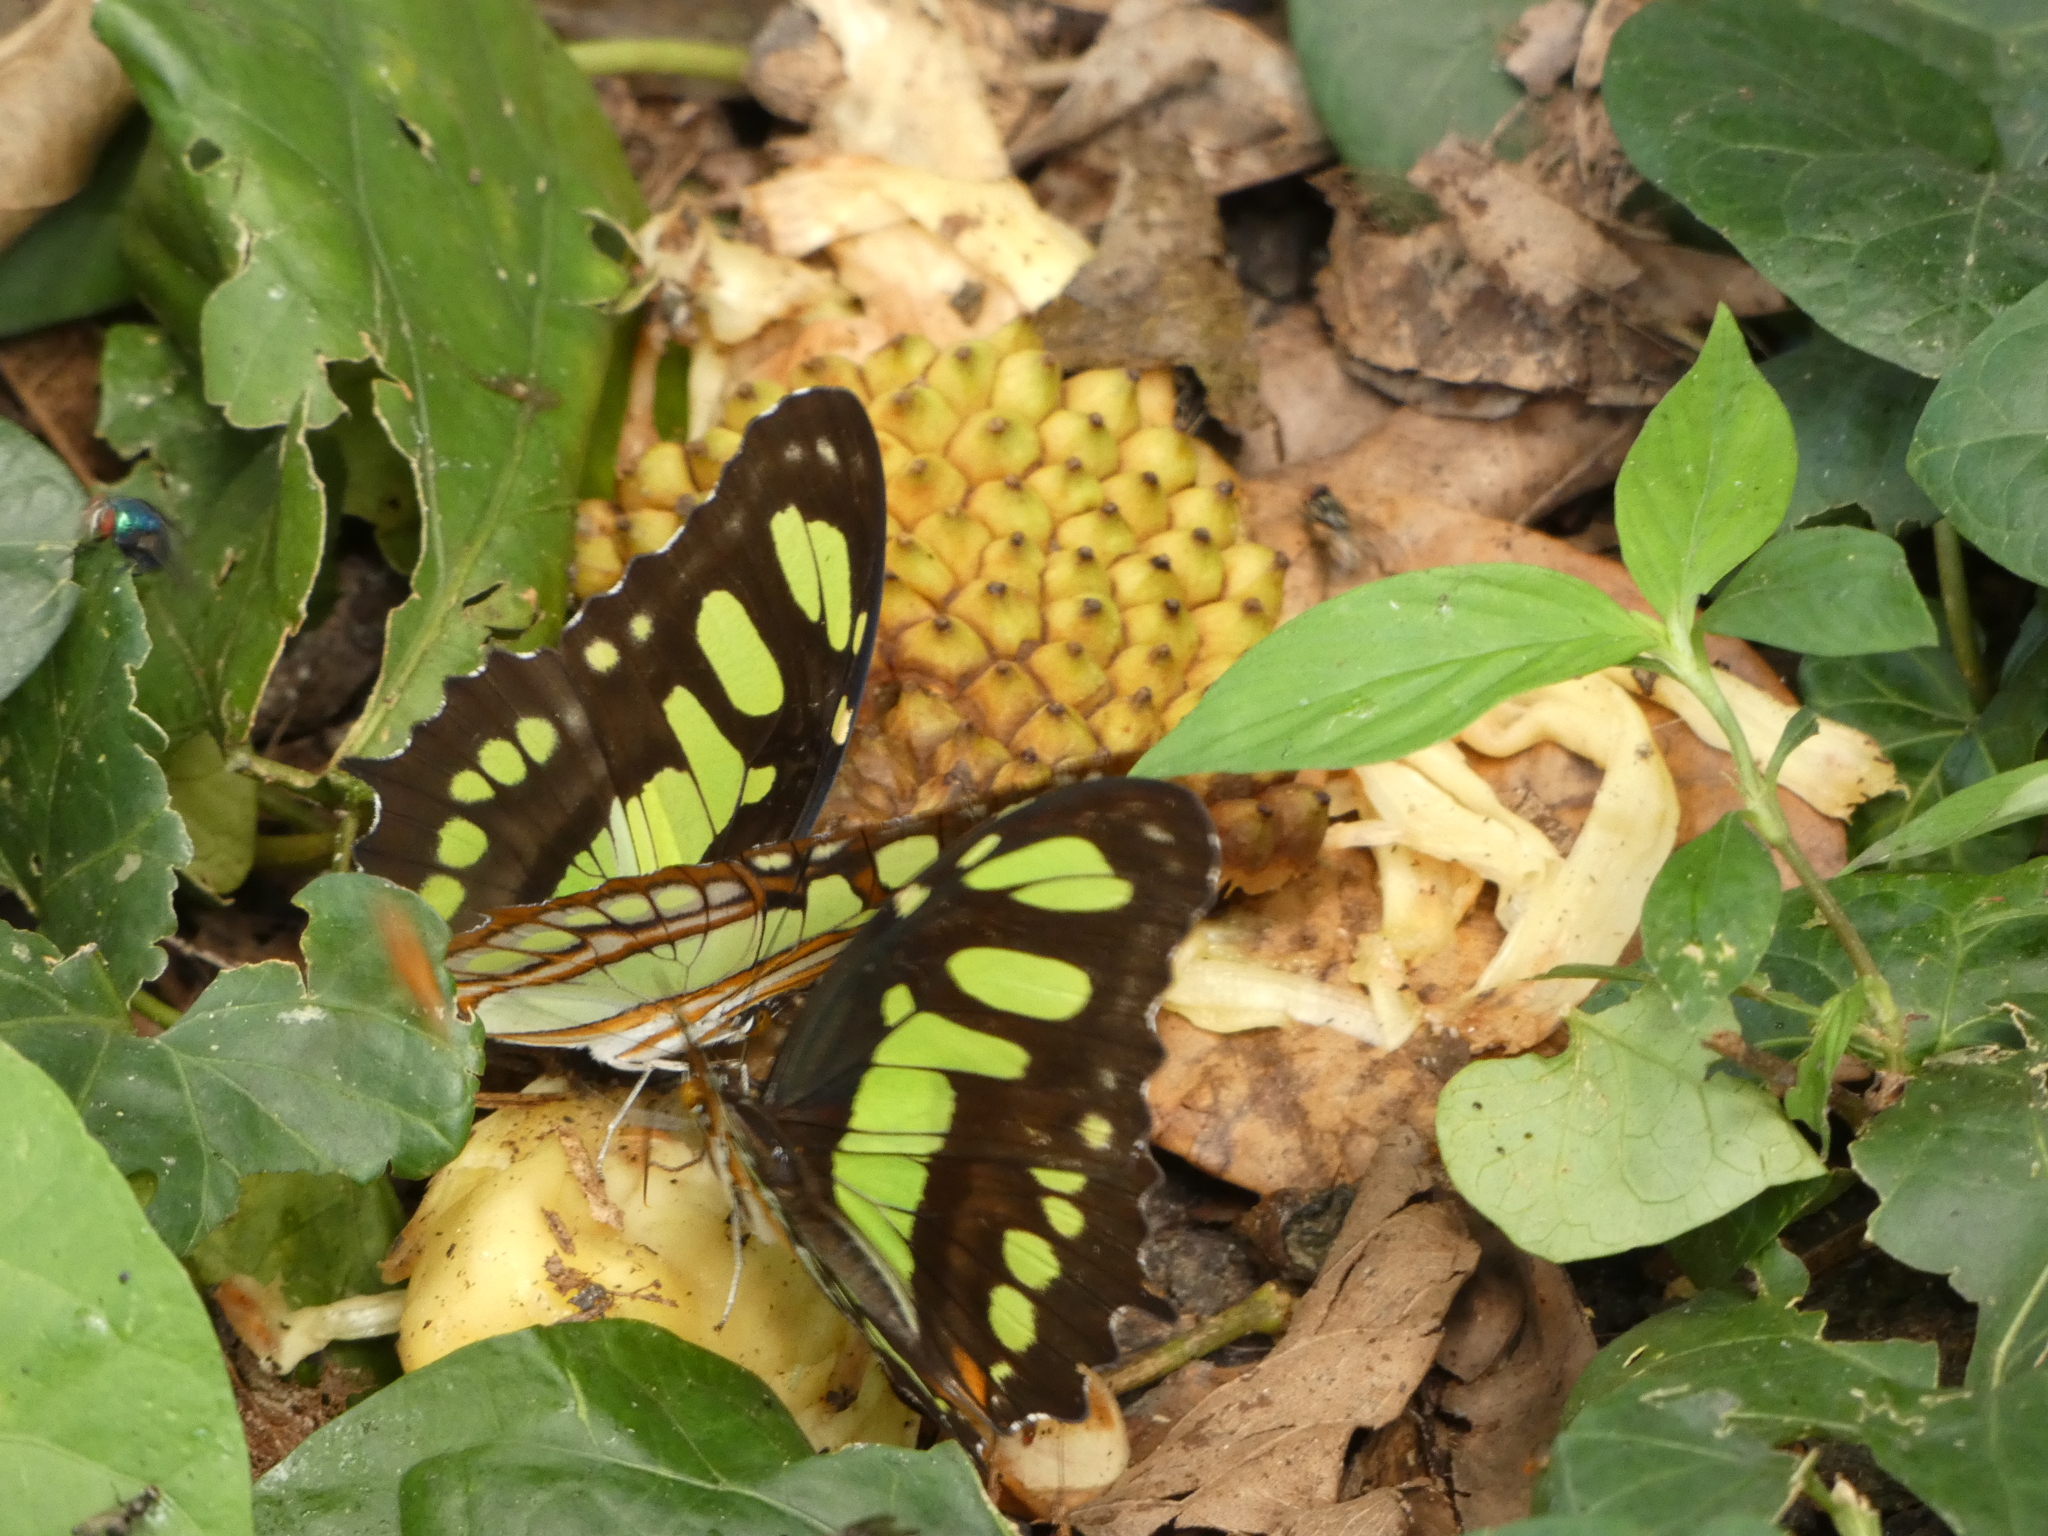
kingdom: Animalia
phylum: Arthropoda
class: Insecta
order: Lepidoptera
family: Nymphalidae
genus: Siproeta
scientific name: Siproeta stelenes
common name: Malachite
